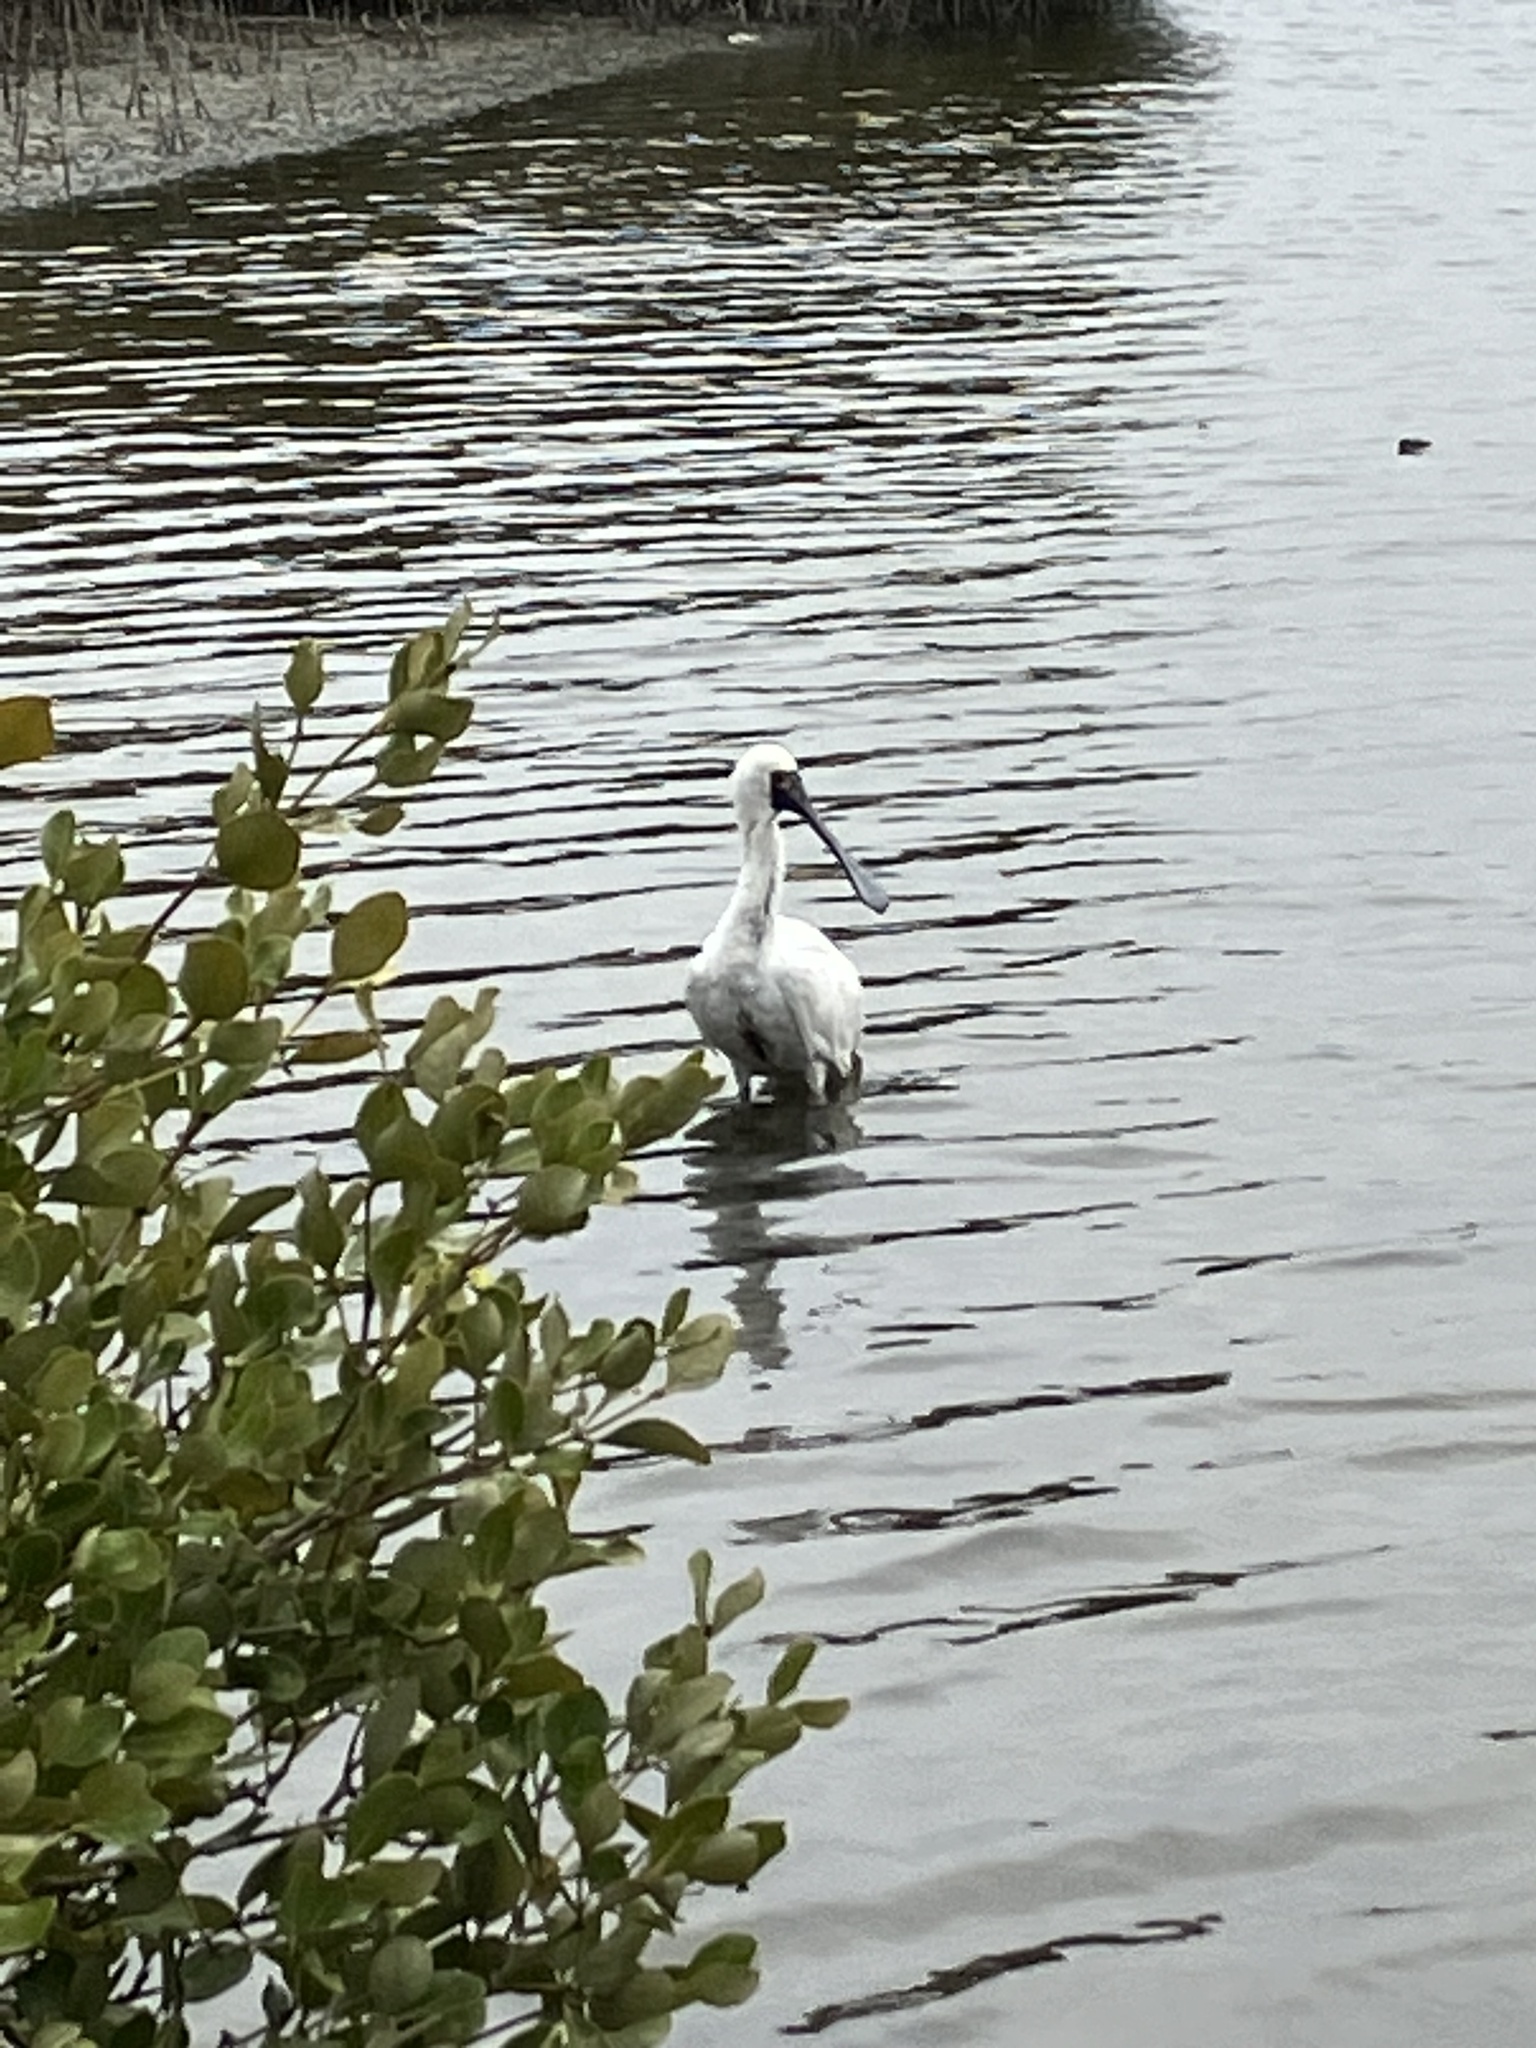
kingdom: Animalia
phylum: Chordata
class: Aves
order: Pelecaniformes
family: Threskiornithidae
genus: Platalea
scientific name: Platalea minor
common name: Black-faced spoonbill
